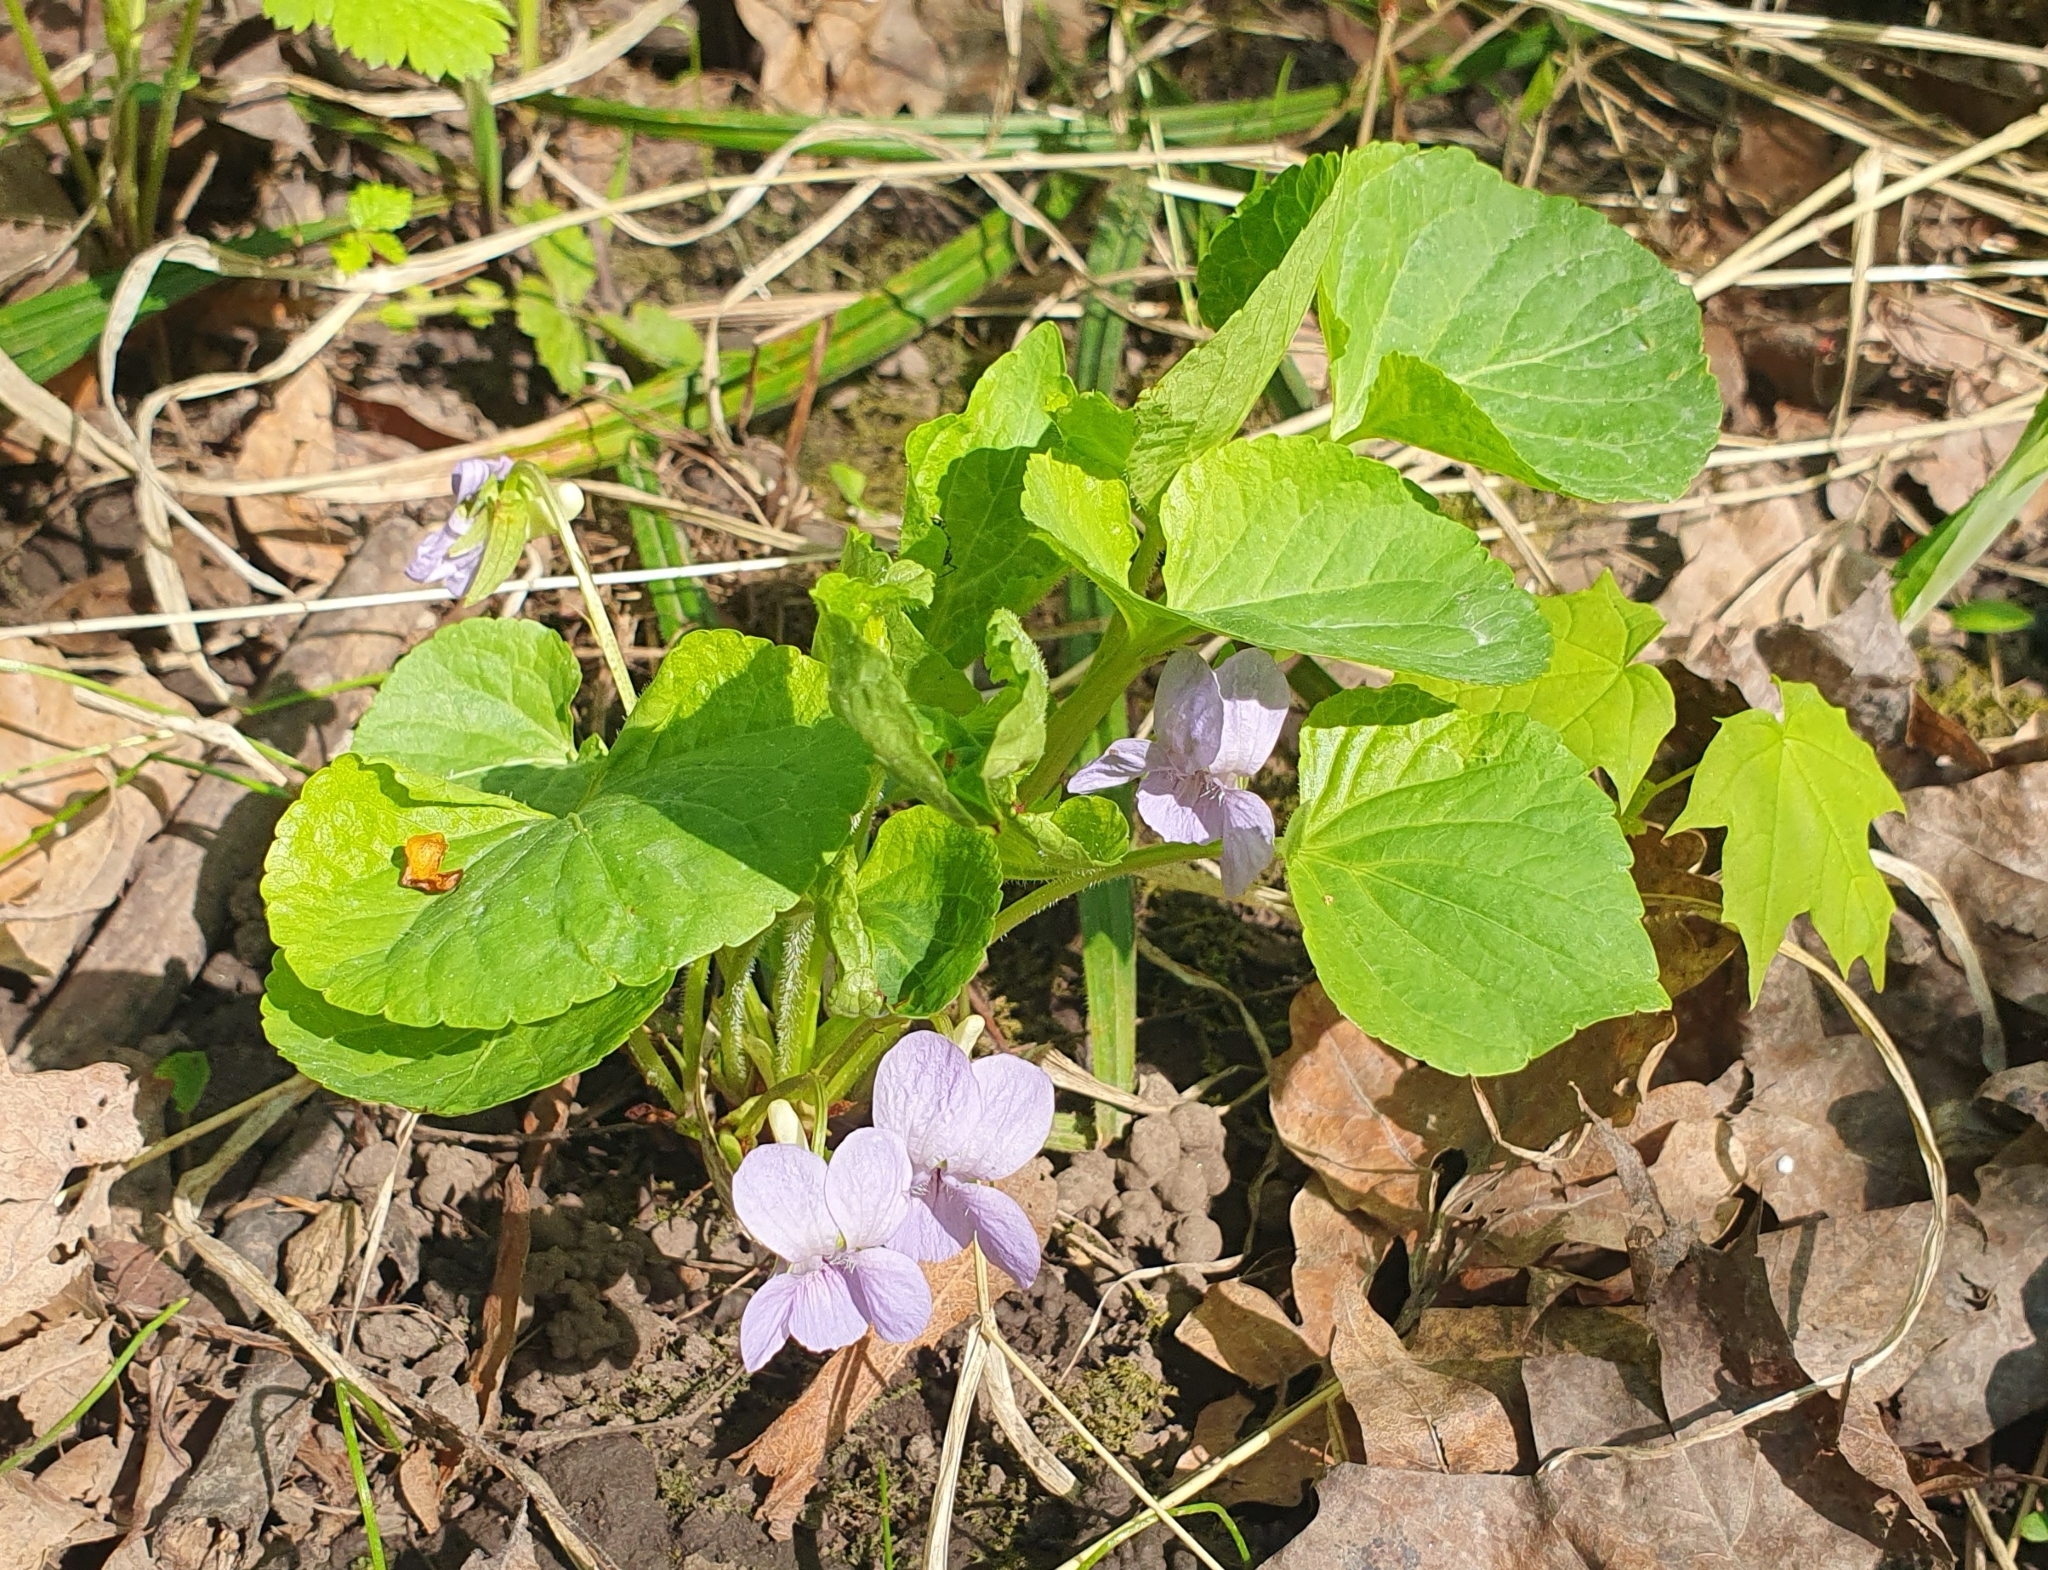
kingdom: Plantae
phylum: Tracheophyta
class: Magnoliopsida
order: Malpighiales
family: Violaceae
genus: Viola
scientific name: Viola mirabilis
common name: Wonder violet
